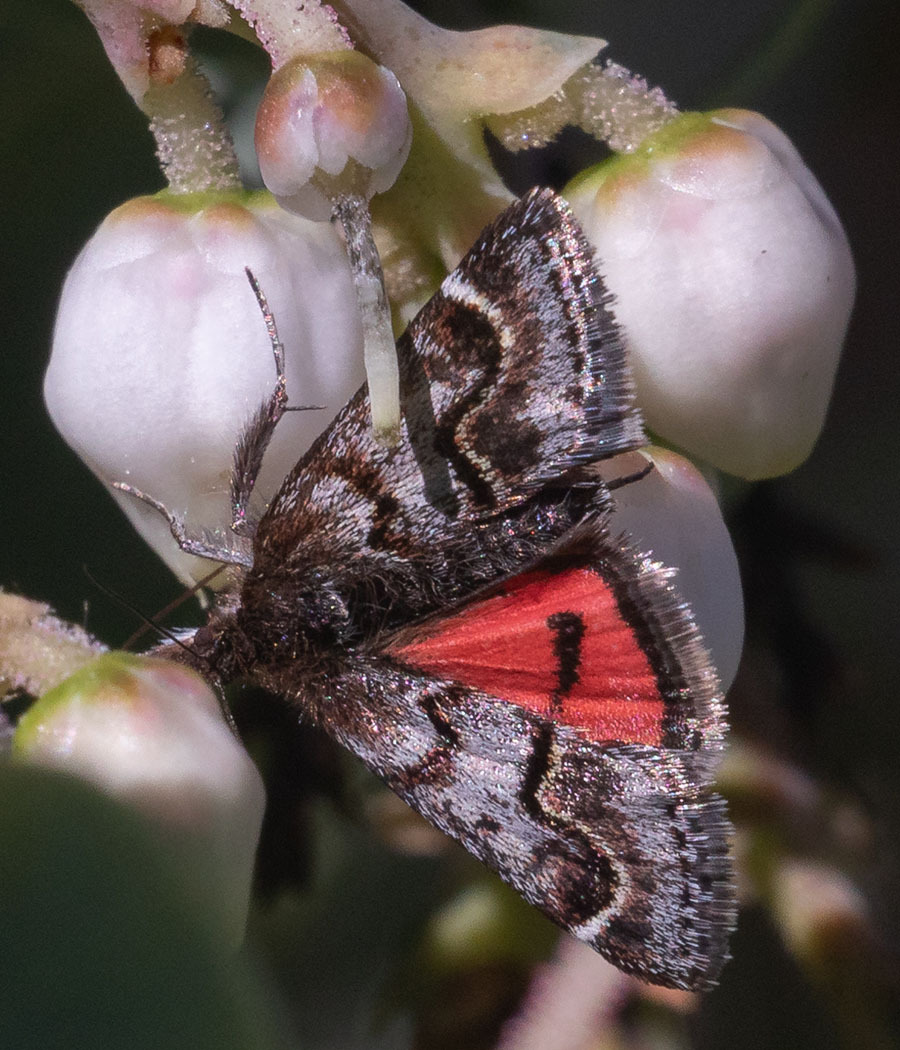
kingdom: Animalia
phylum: Arthropoda
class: Insecta
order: Lepidoptera
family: Crambidae
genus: Pyrausta
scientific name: Pyrausta dapalis
